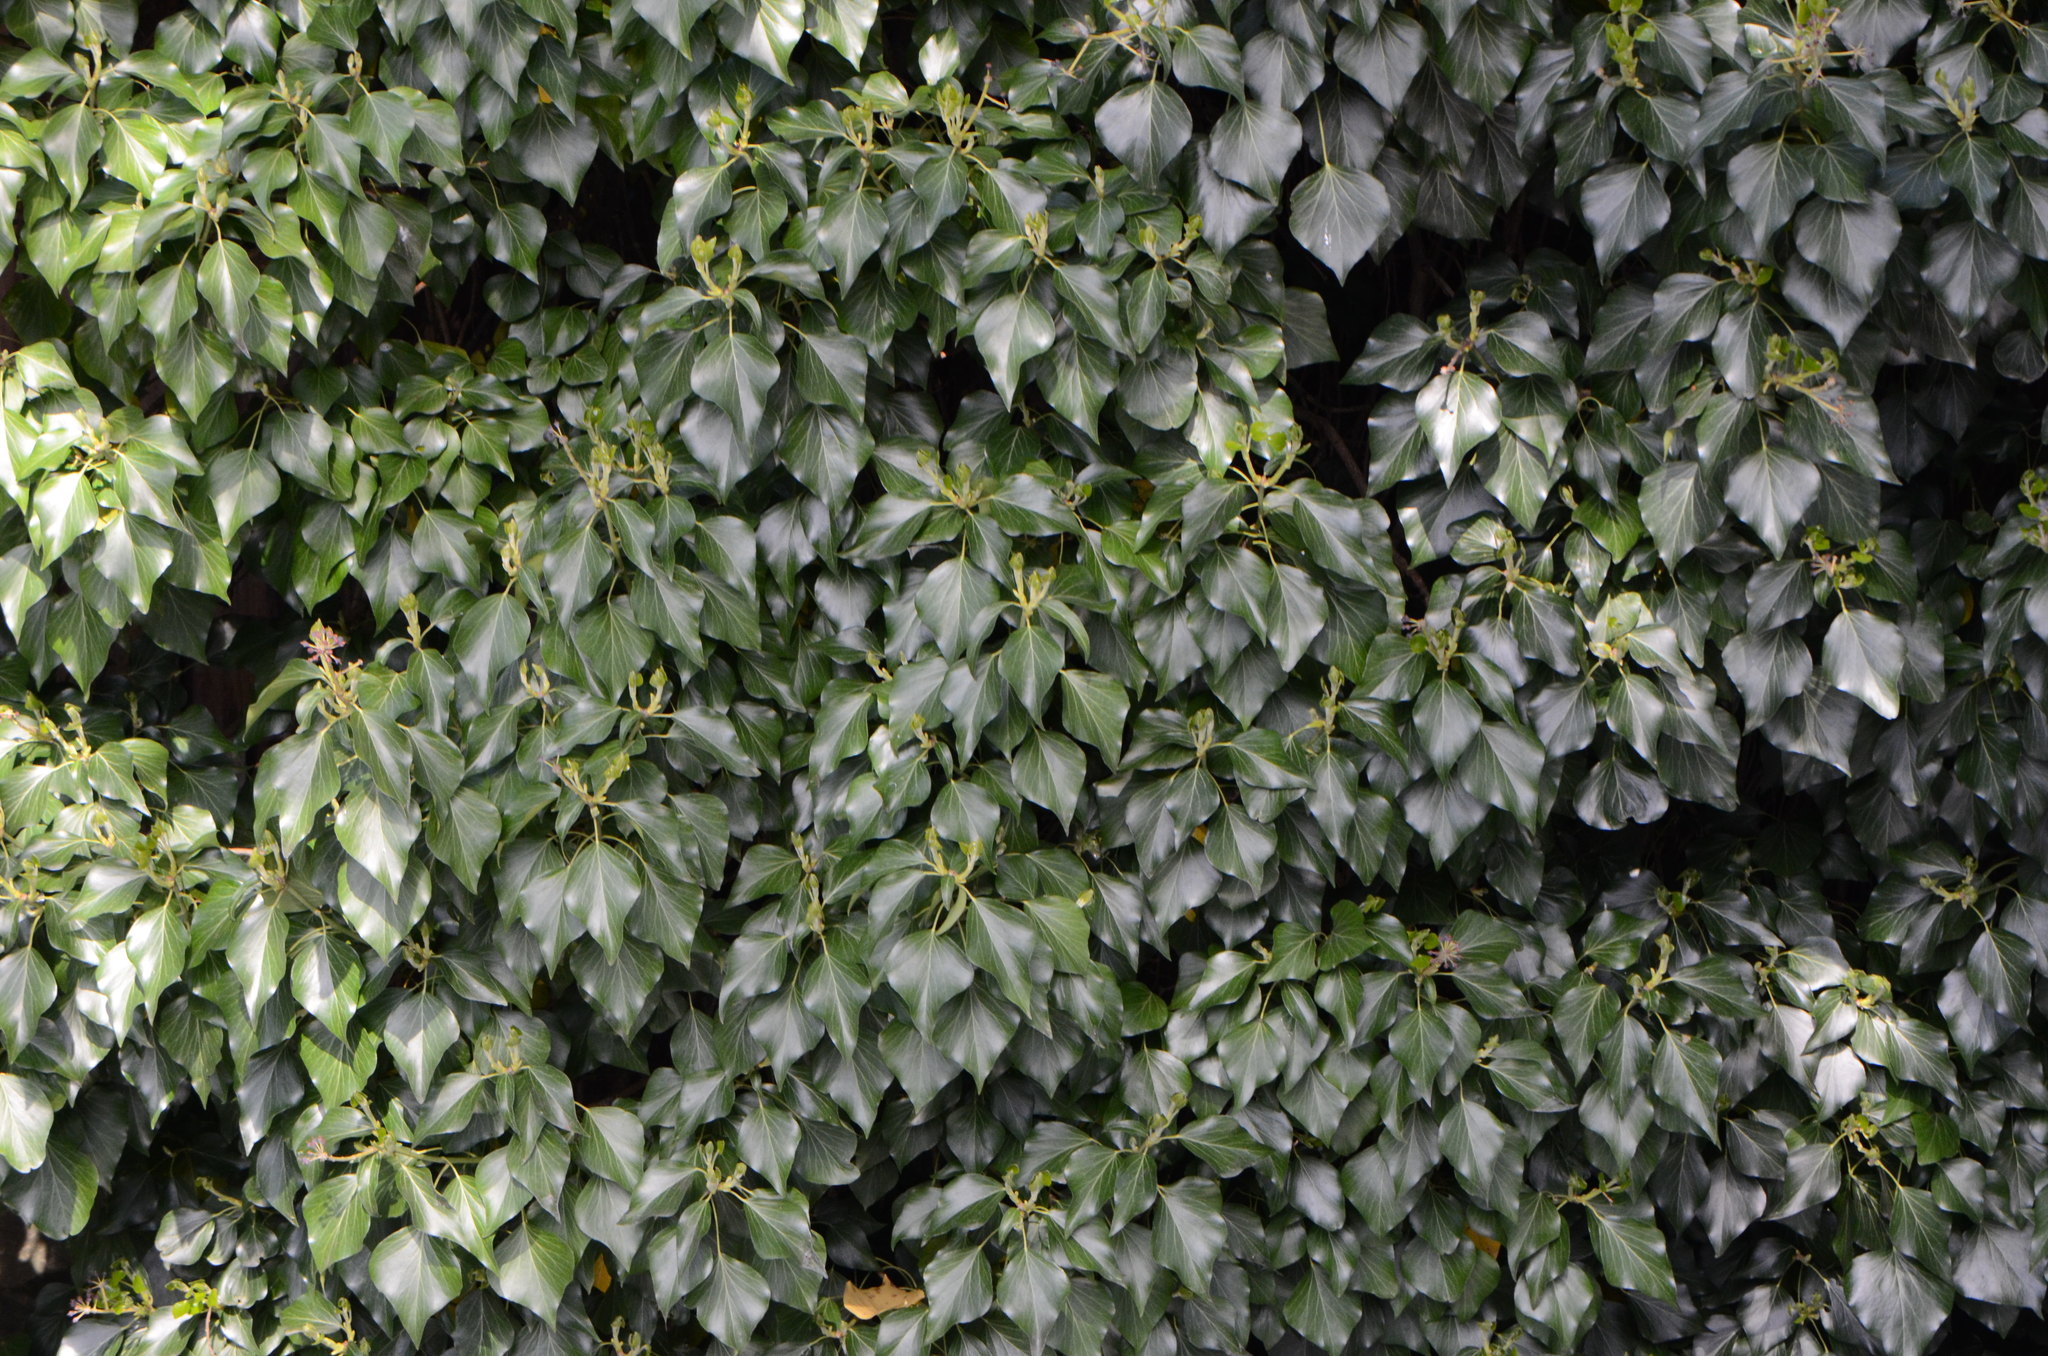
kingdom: Plantae
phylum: Tracheophyta
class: Magnoliopsida
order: Apiales
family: Araliaceae
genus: Hedera
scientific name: Hedera helix
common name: Ivy
